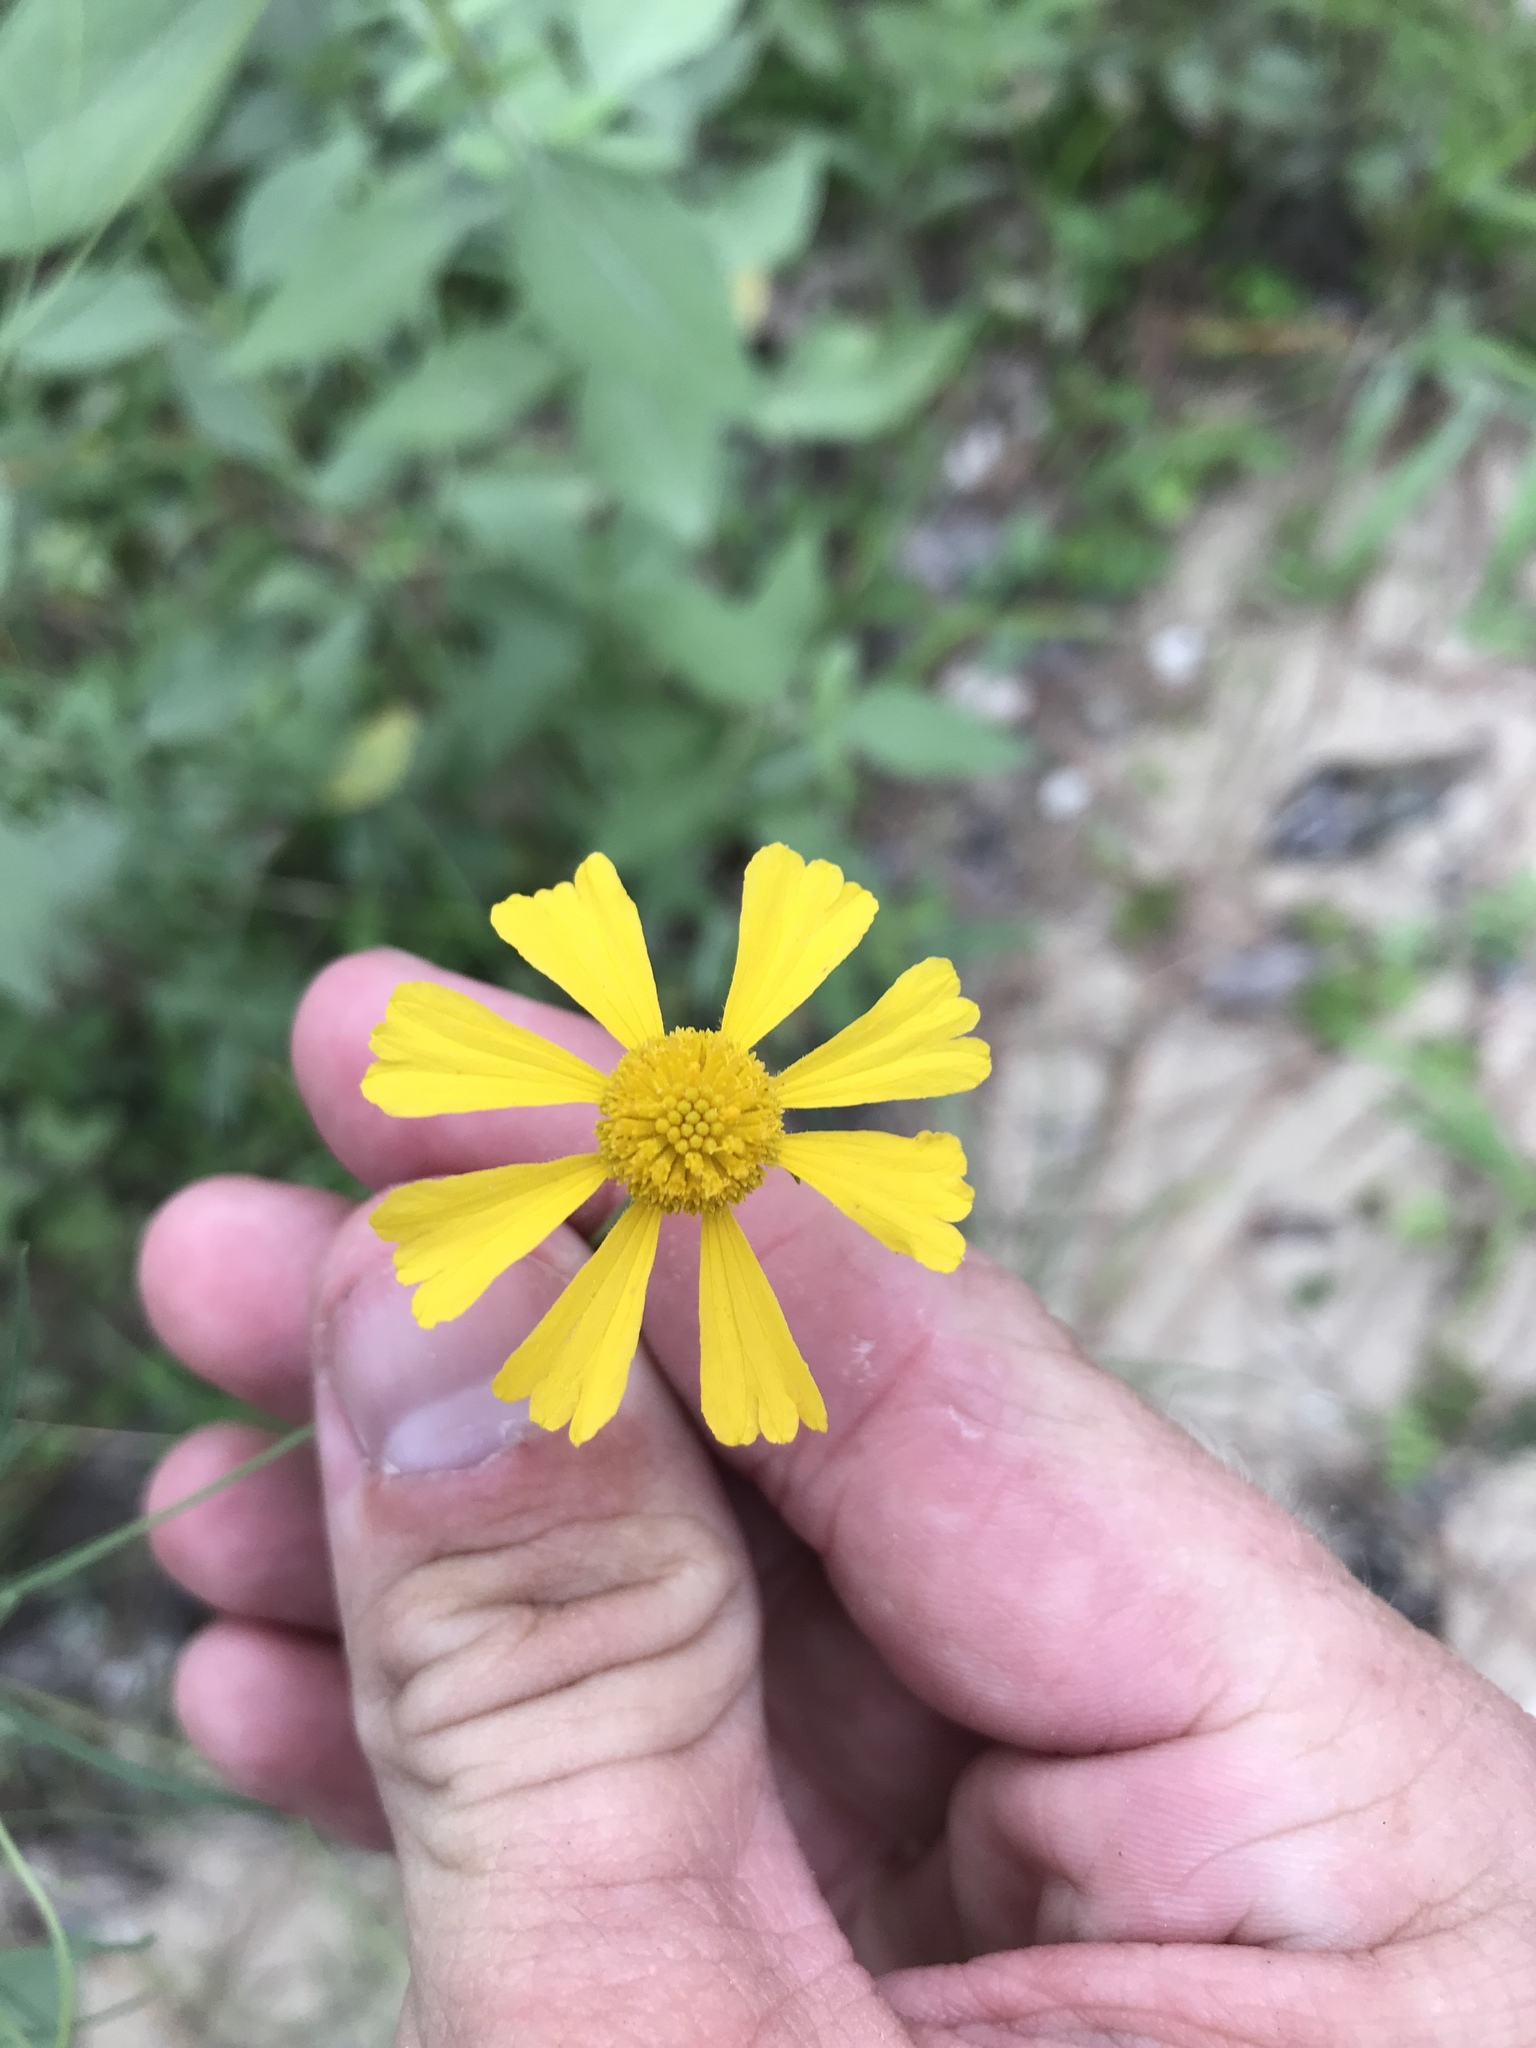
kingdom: Plantae
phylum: Tracheophyta
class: Magnoliopsida
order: Asterales
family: Asteraceae
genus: Helenium
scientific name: Helenium amarum
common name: Bitter sneezeweed
